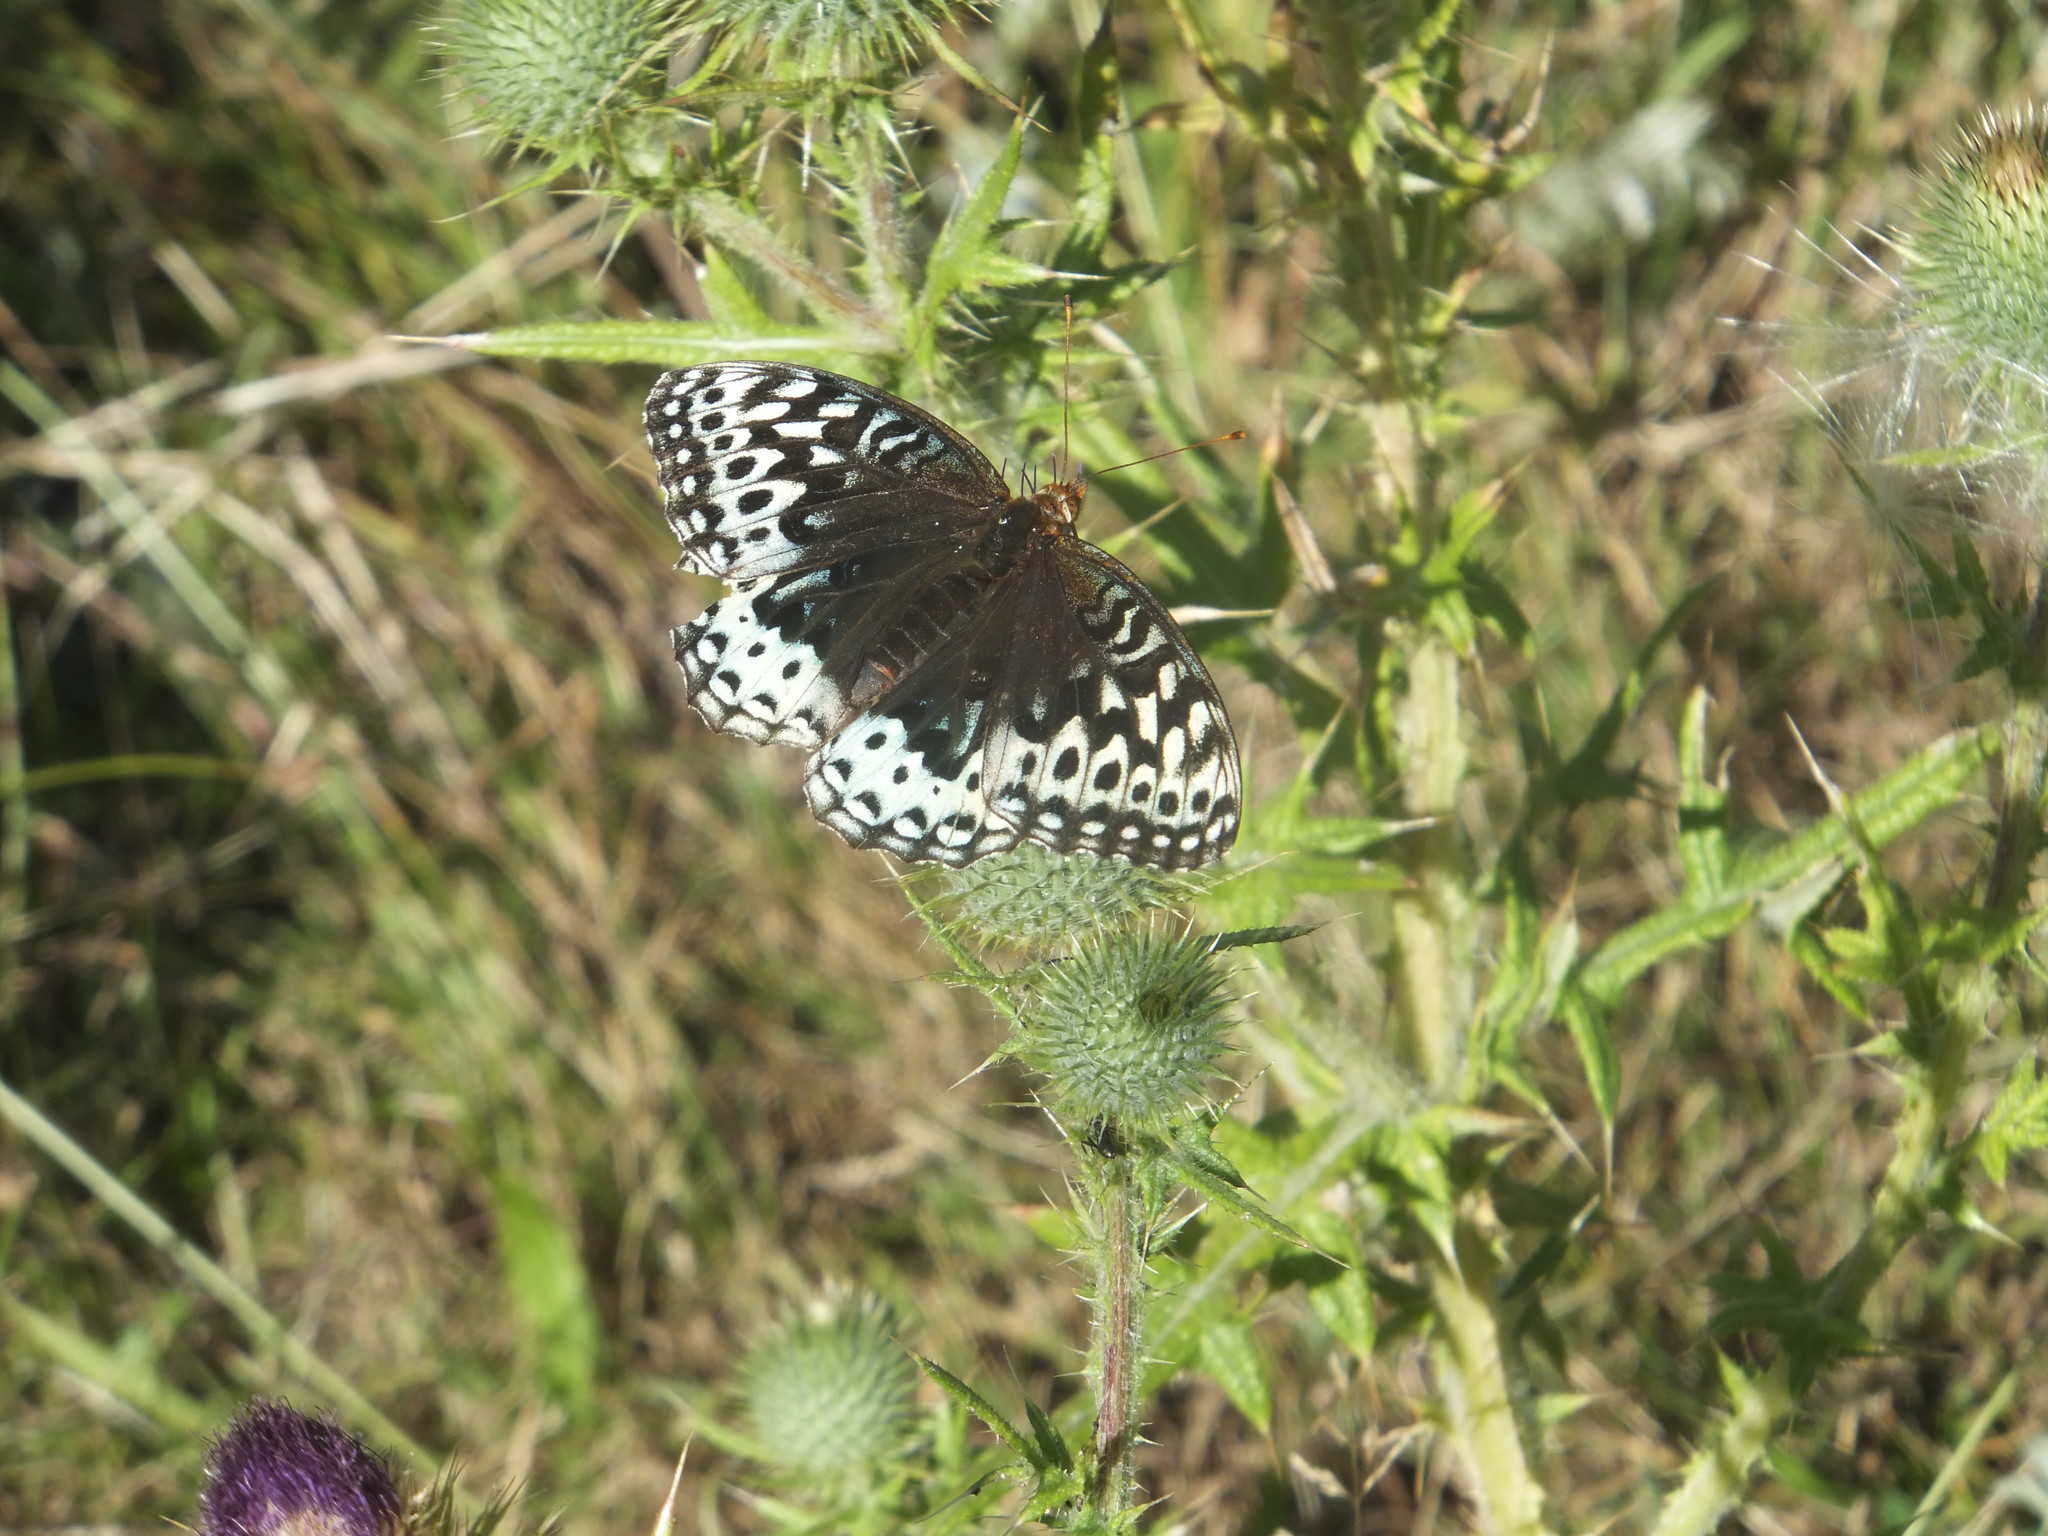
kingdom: Animalia
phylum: Arthropoda
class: Insecta
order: Lepidoptera
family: Nymphalidae
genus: Speyeria
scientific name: Speyeria cybele
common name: Great spangled fritillary
